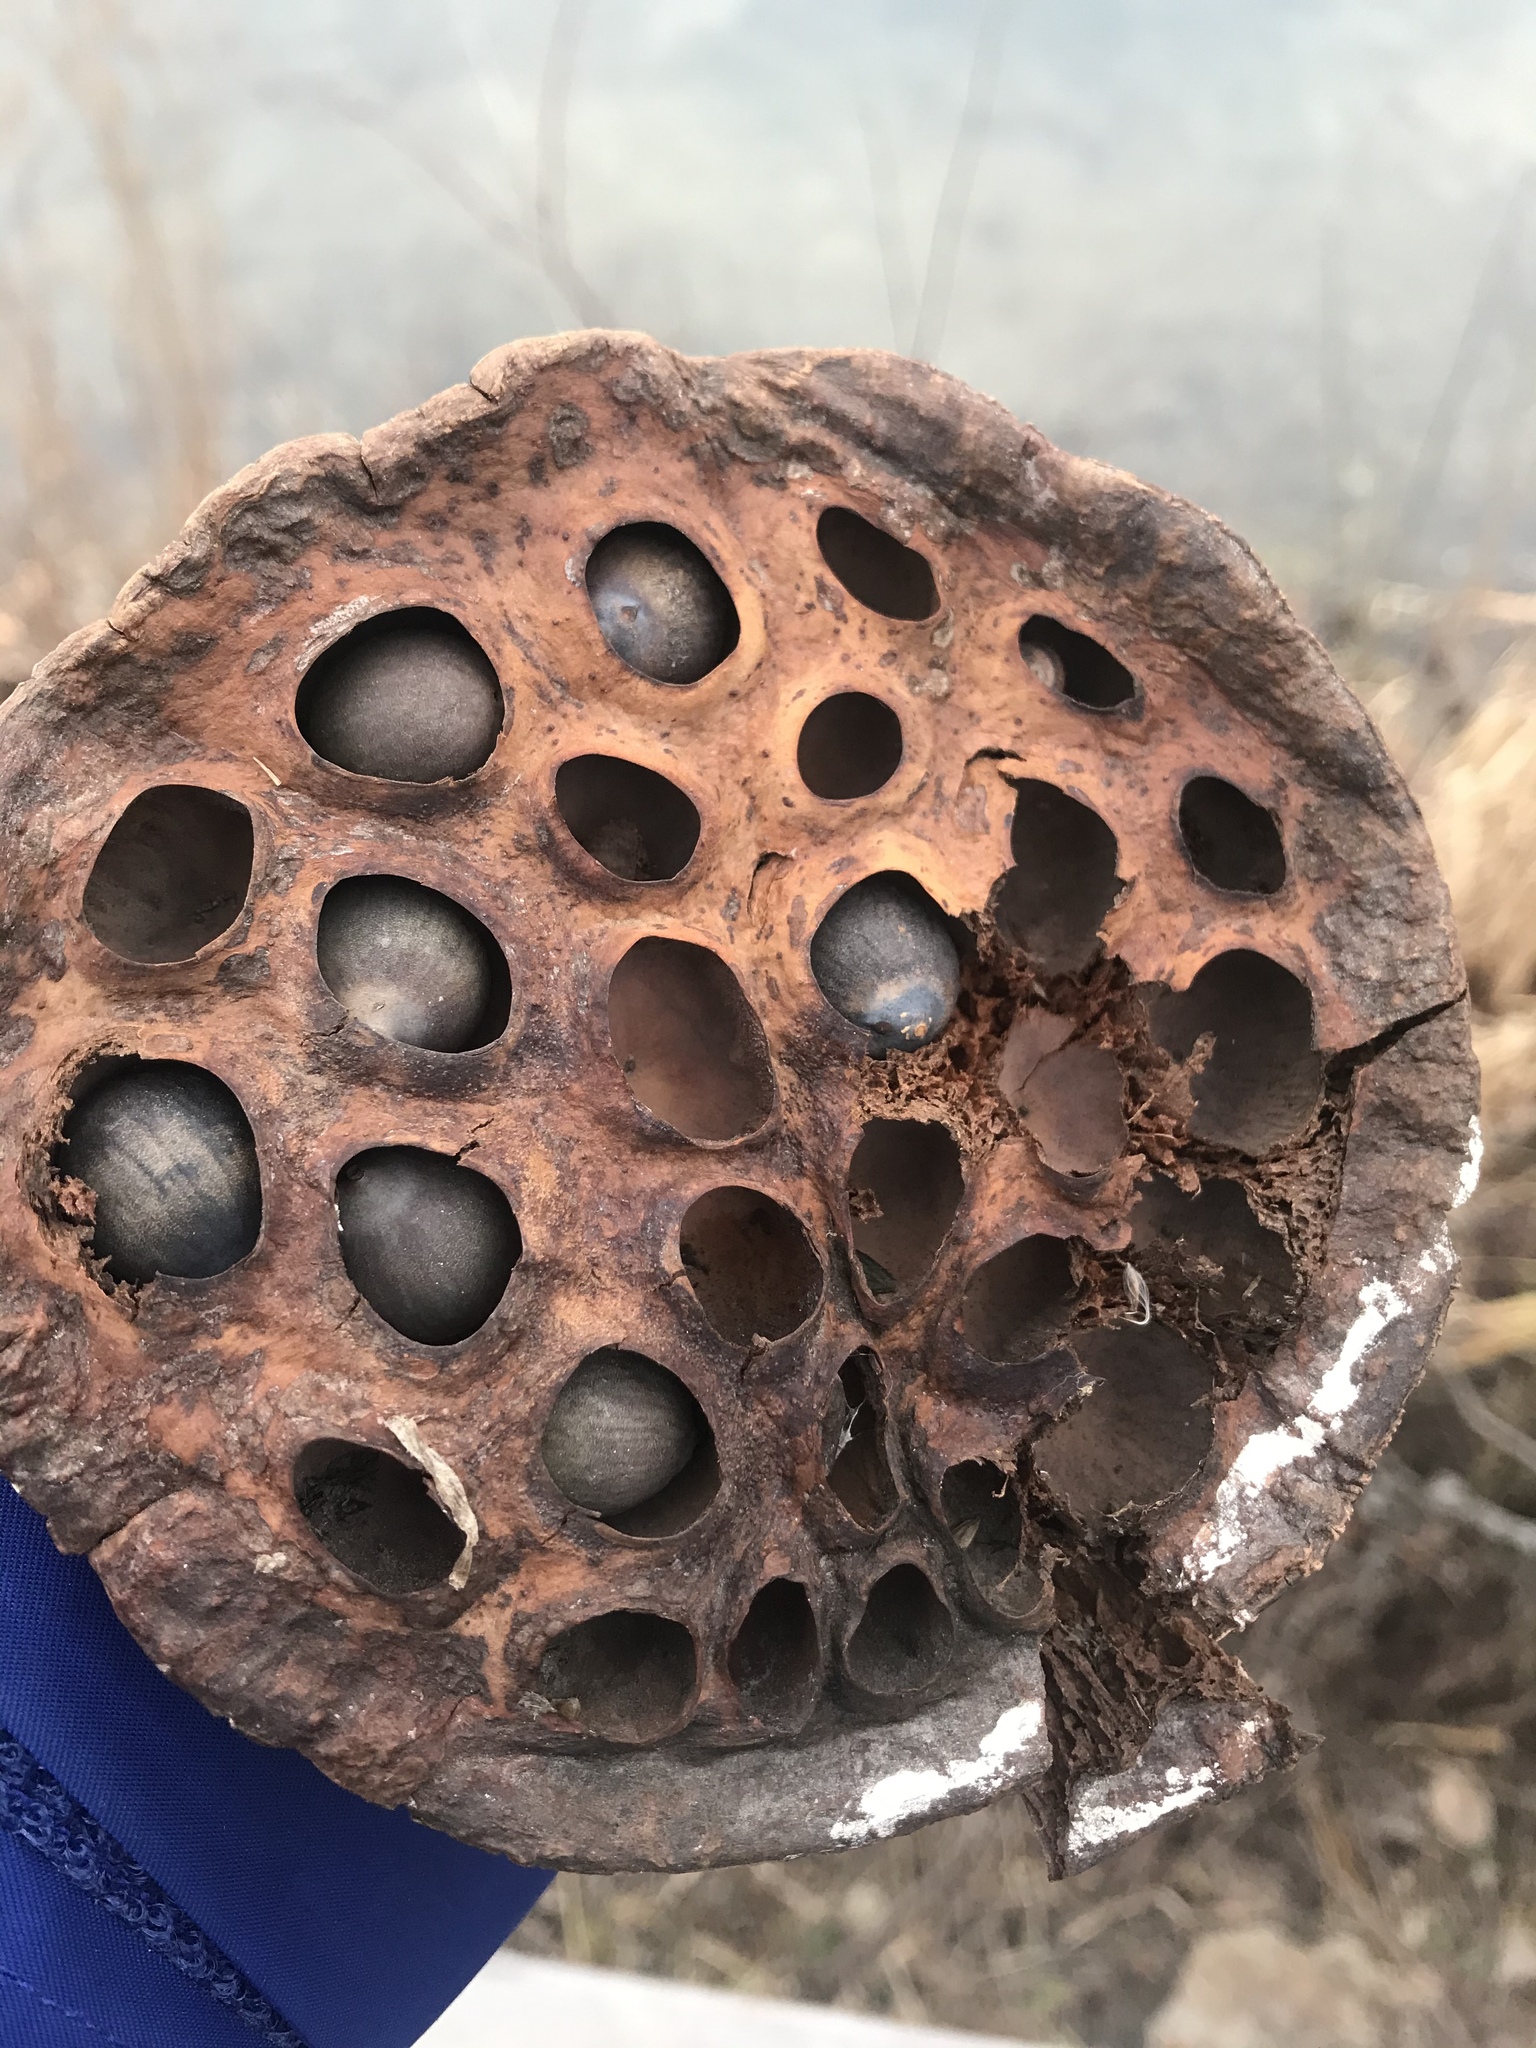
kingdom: Plantae
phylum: Tracheophyta
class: Magnoliopsida
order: Proteales
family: Nelumbonaceae
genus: Nelumbo
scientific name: Nelumbo lutea
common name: American lotus
